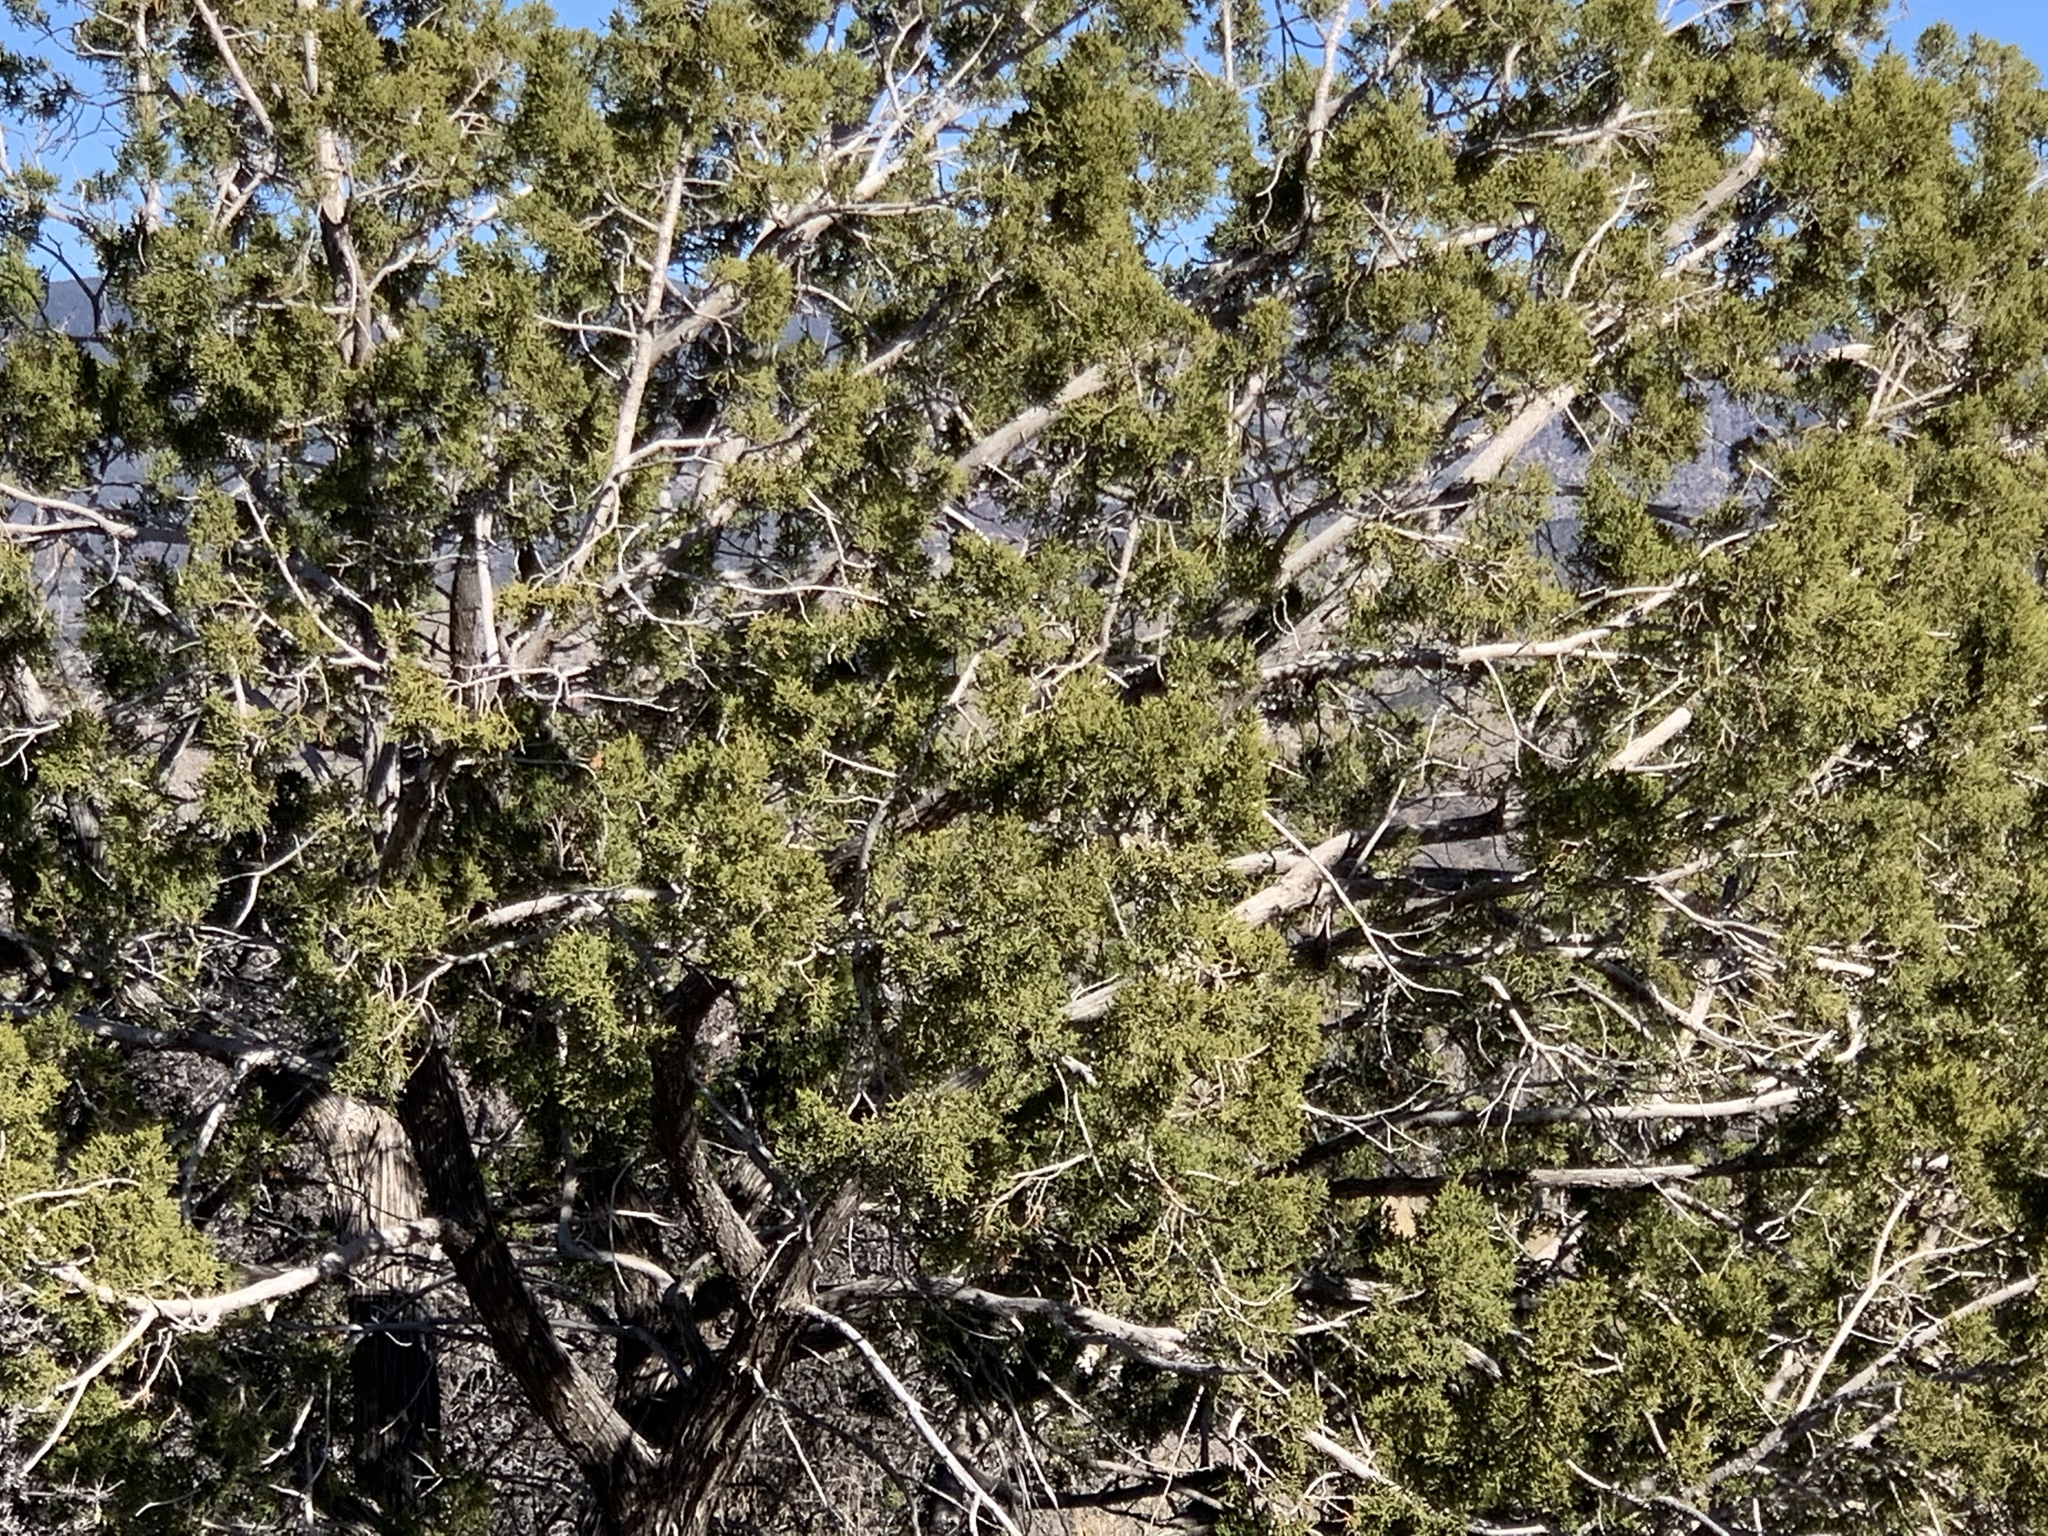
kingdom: Plantae
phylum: Tracheophyta
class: Pinopsida
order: Pinales
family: Cupressaceae
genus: Juniperus
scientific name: Juniperus monosperma
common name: One-seed juniper
